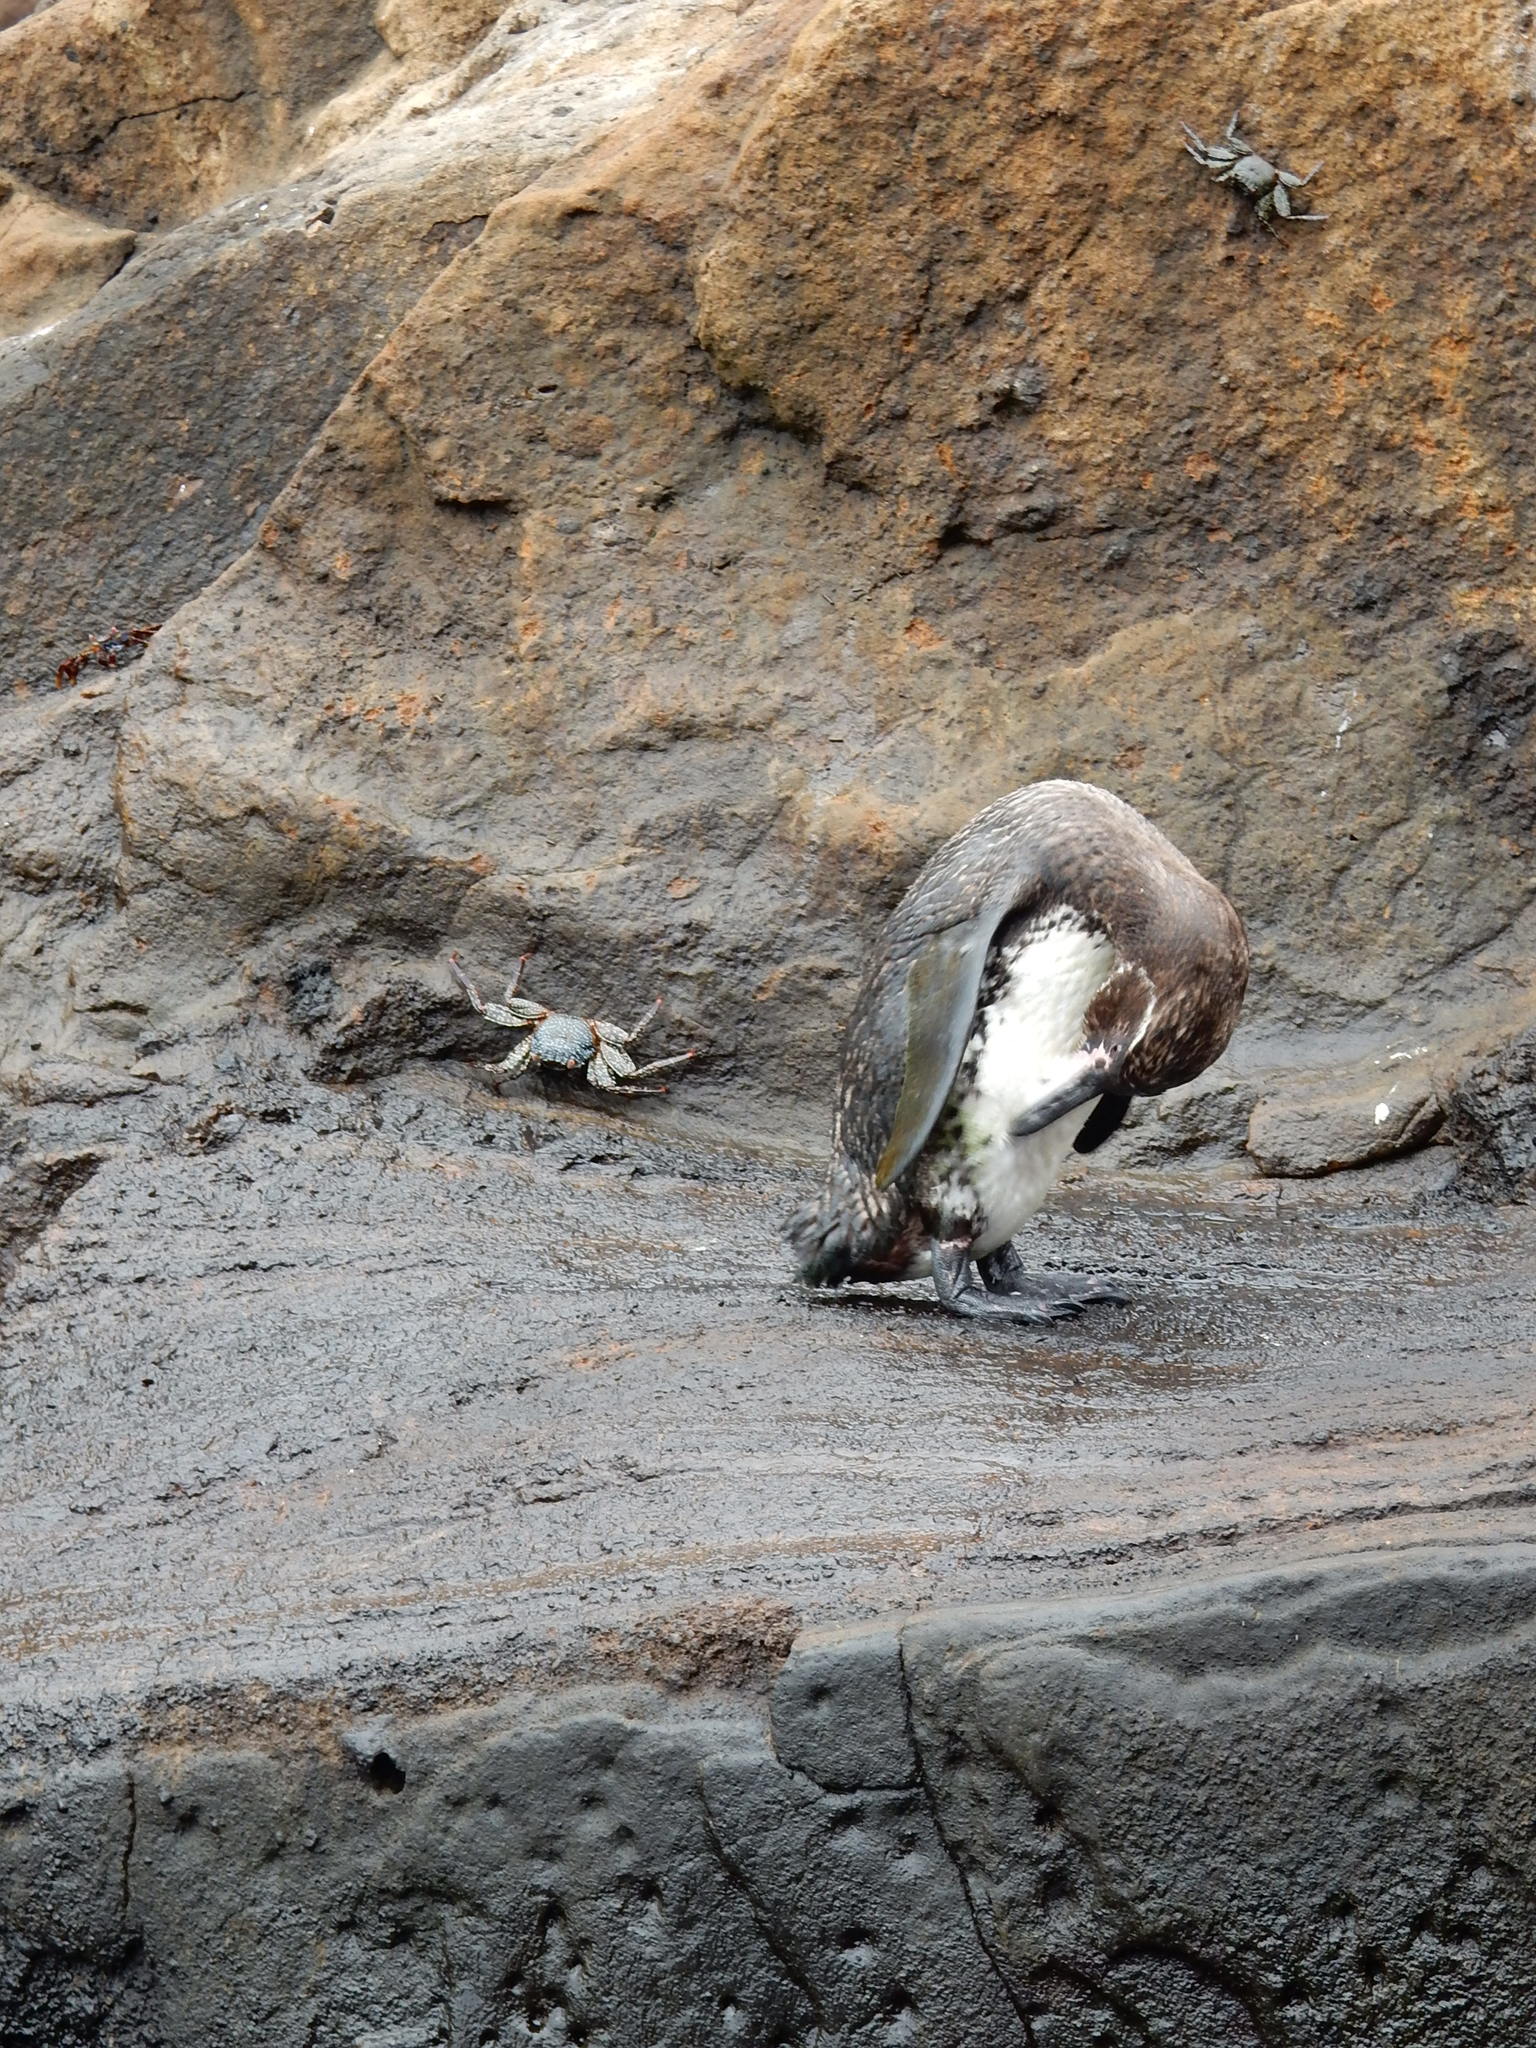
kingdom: Animalia
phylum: Chordata
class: Aves
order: Sphenisciformes
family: Spheniscidae
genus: Spheniscus
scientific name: Spheniscus mendiculus
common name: Galapagos penguin
